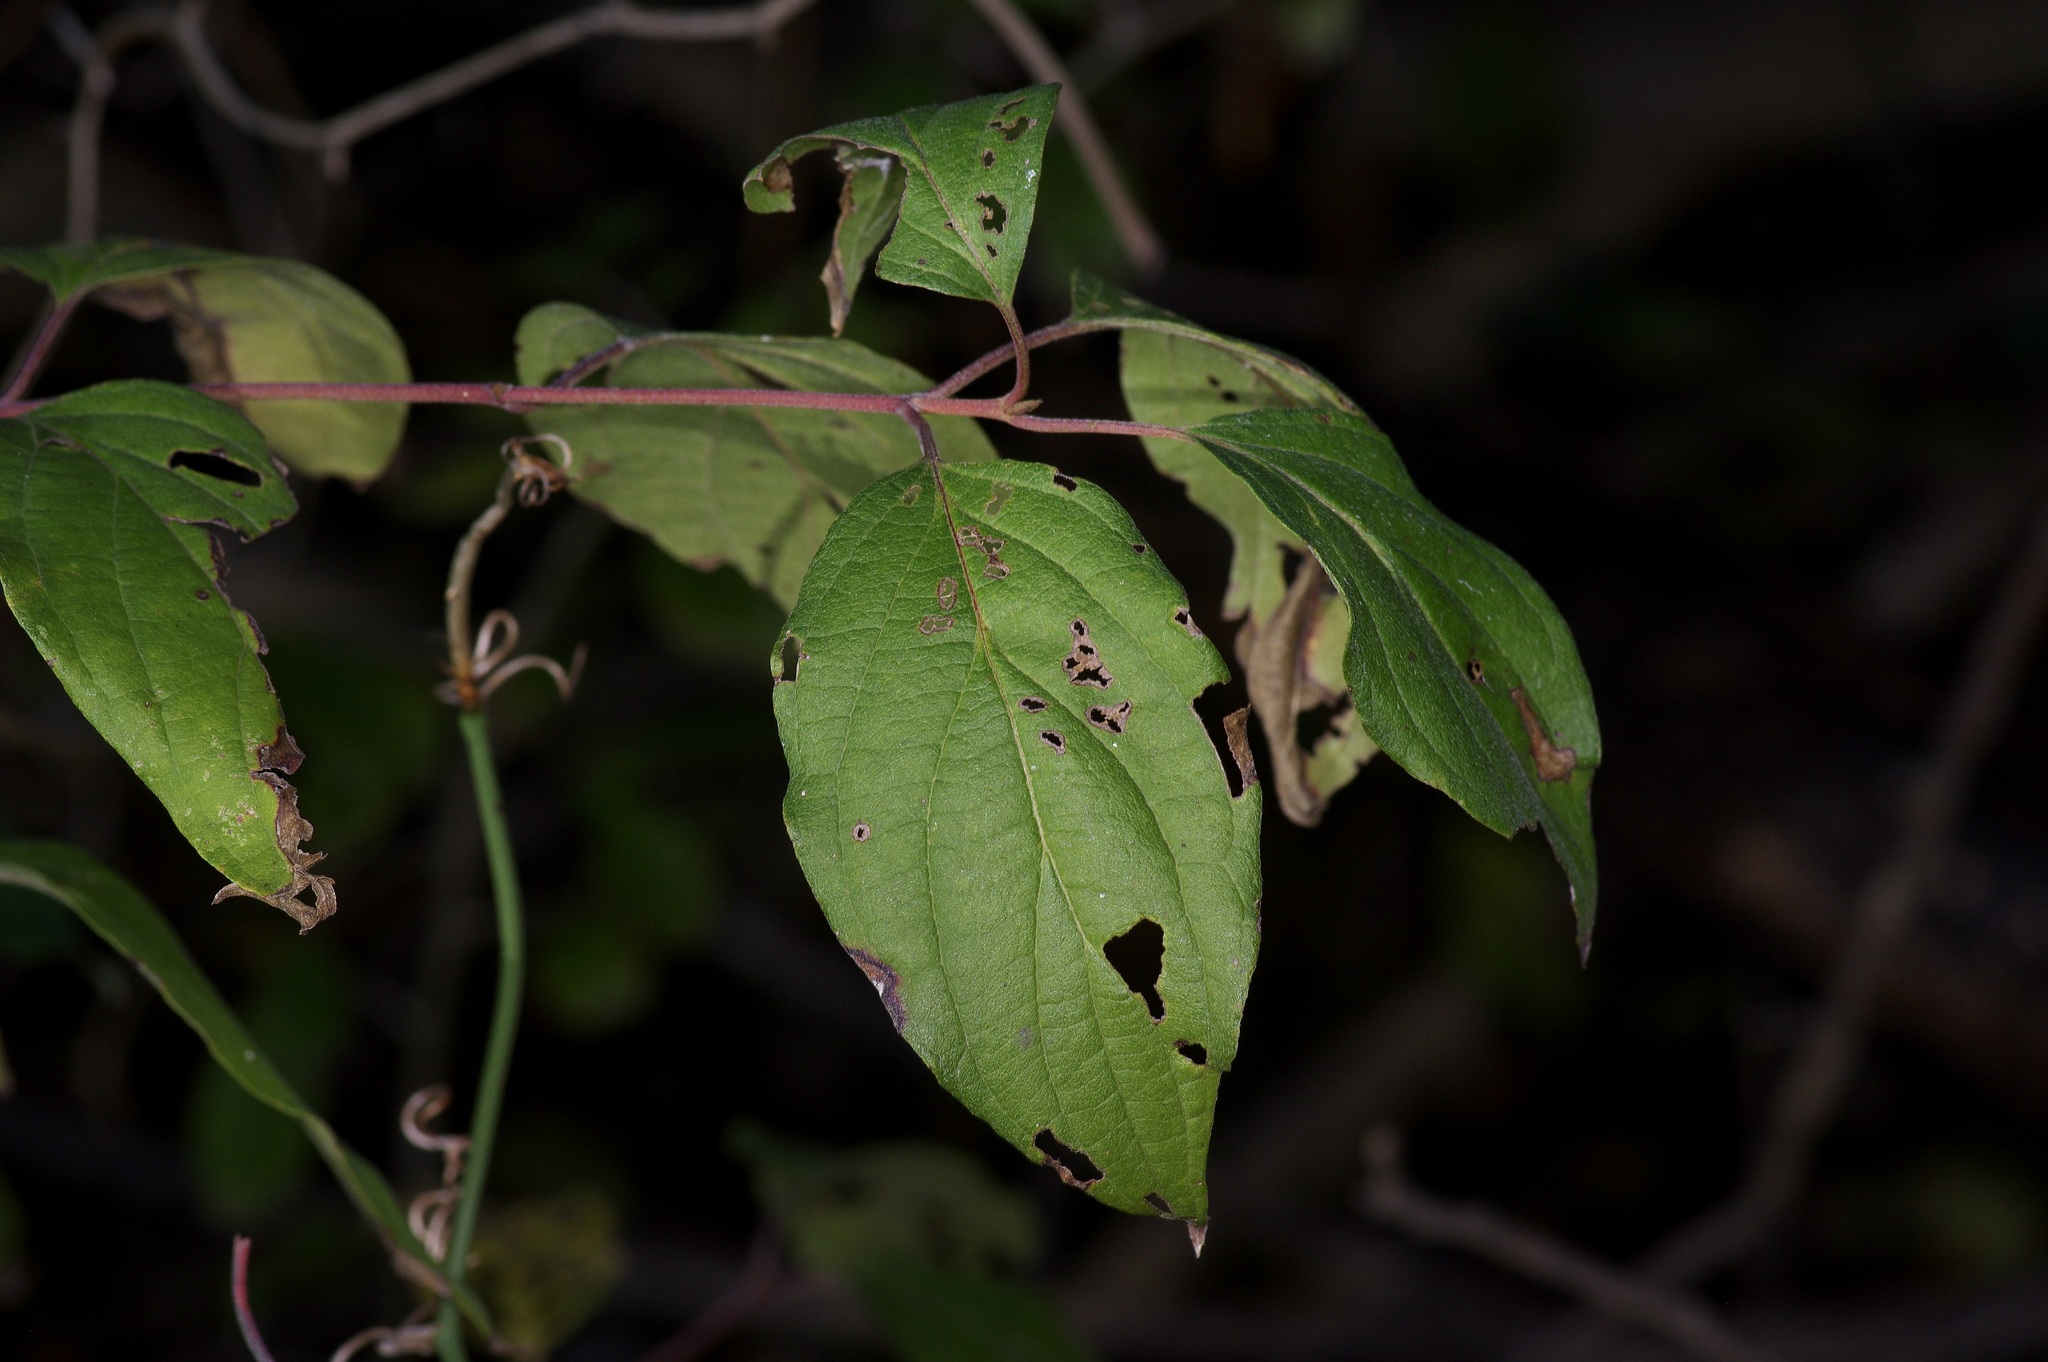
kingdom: Plantae
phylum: Tracheophyta
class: Magnoliopsida
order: Cornales
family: Cornaceae
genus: Cornus
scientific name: Cornus drummondii
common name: Rough-leaf dogwood
